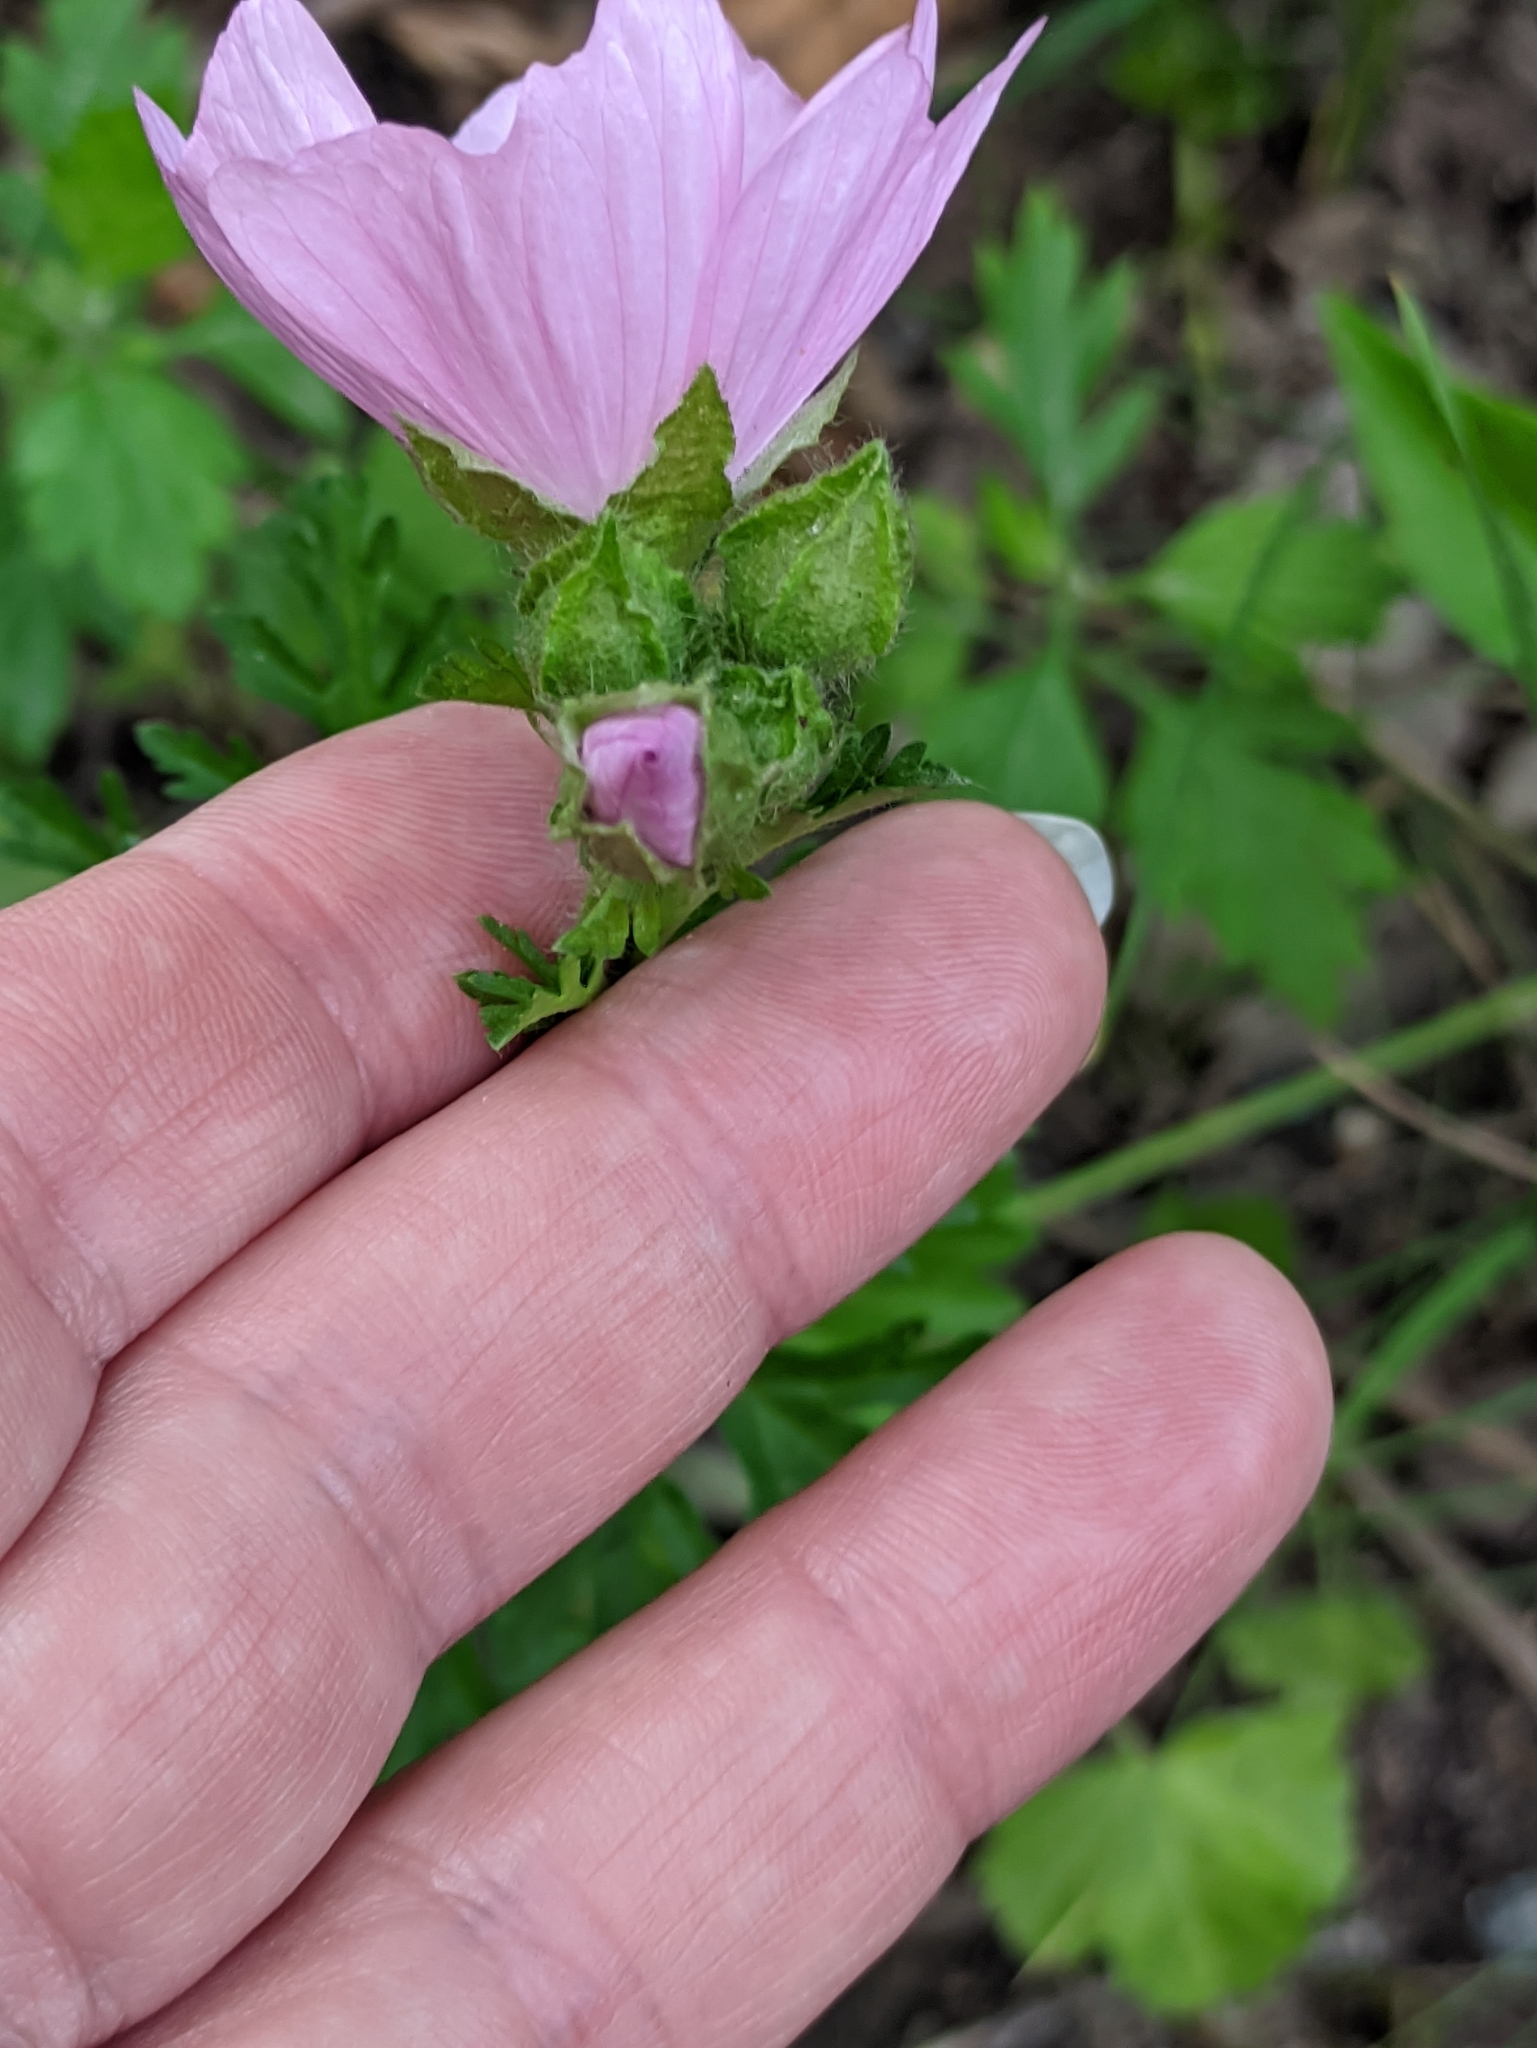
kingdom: Plantae
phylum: Tracheophyta
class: Magnoliopsida
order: Malvales
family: Malvaceae
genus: Malva
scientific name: Malva moschata
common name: Musk mallow
